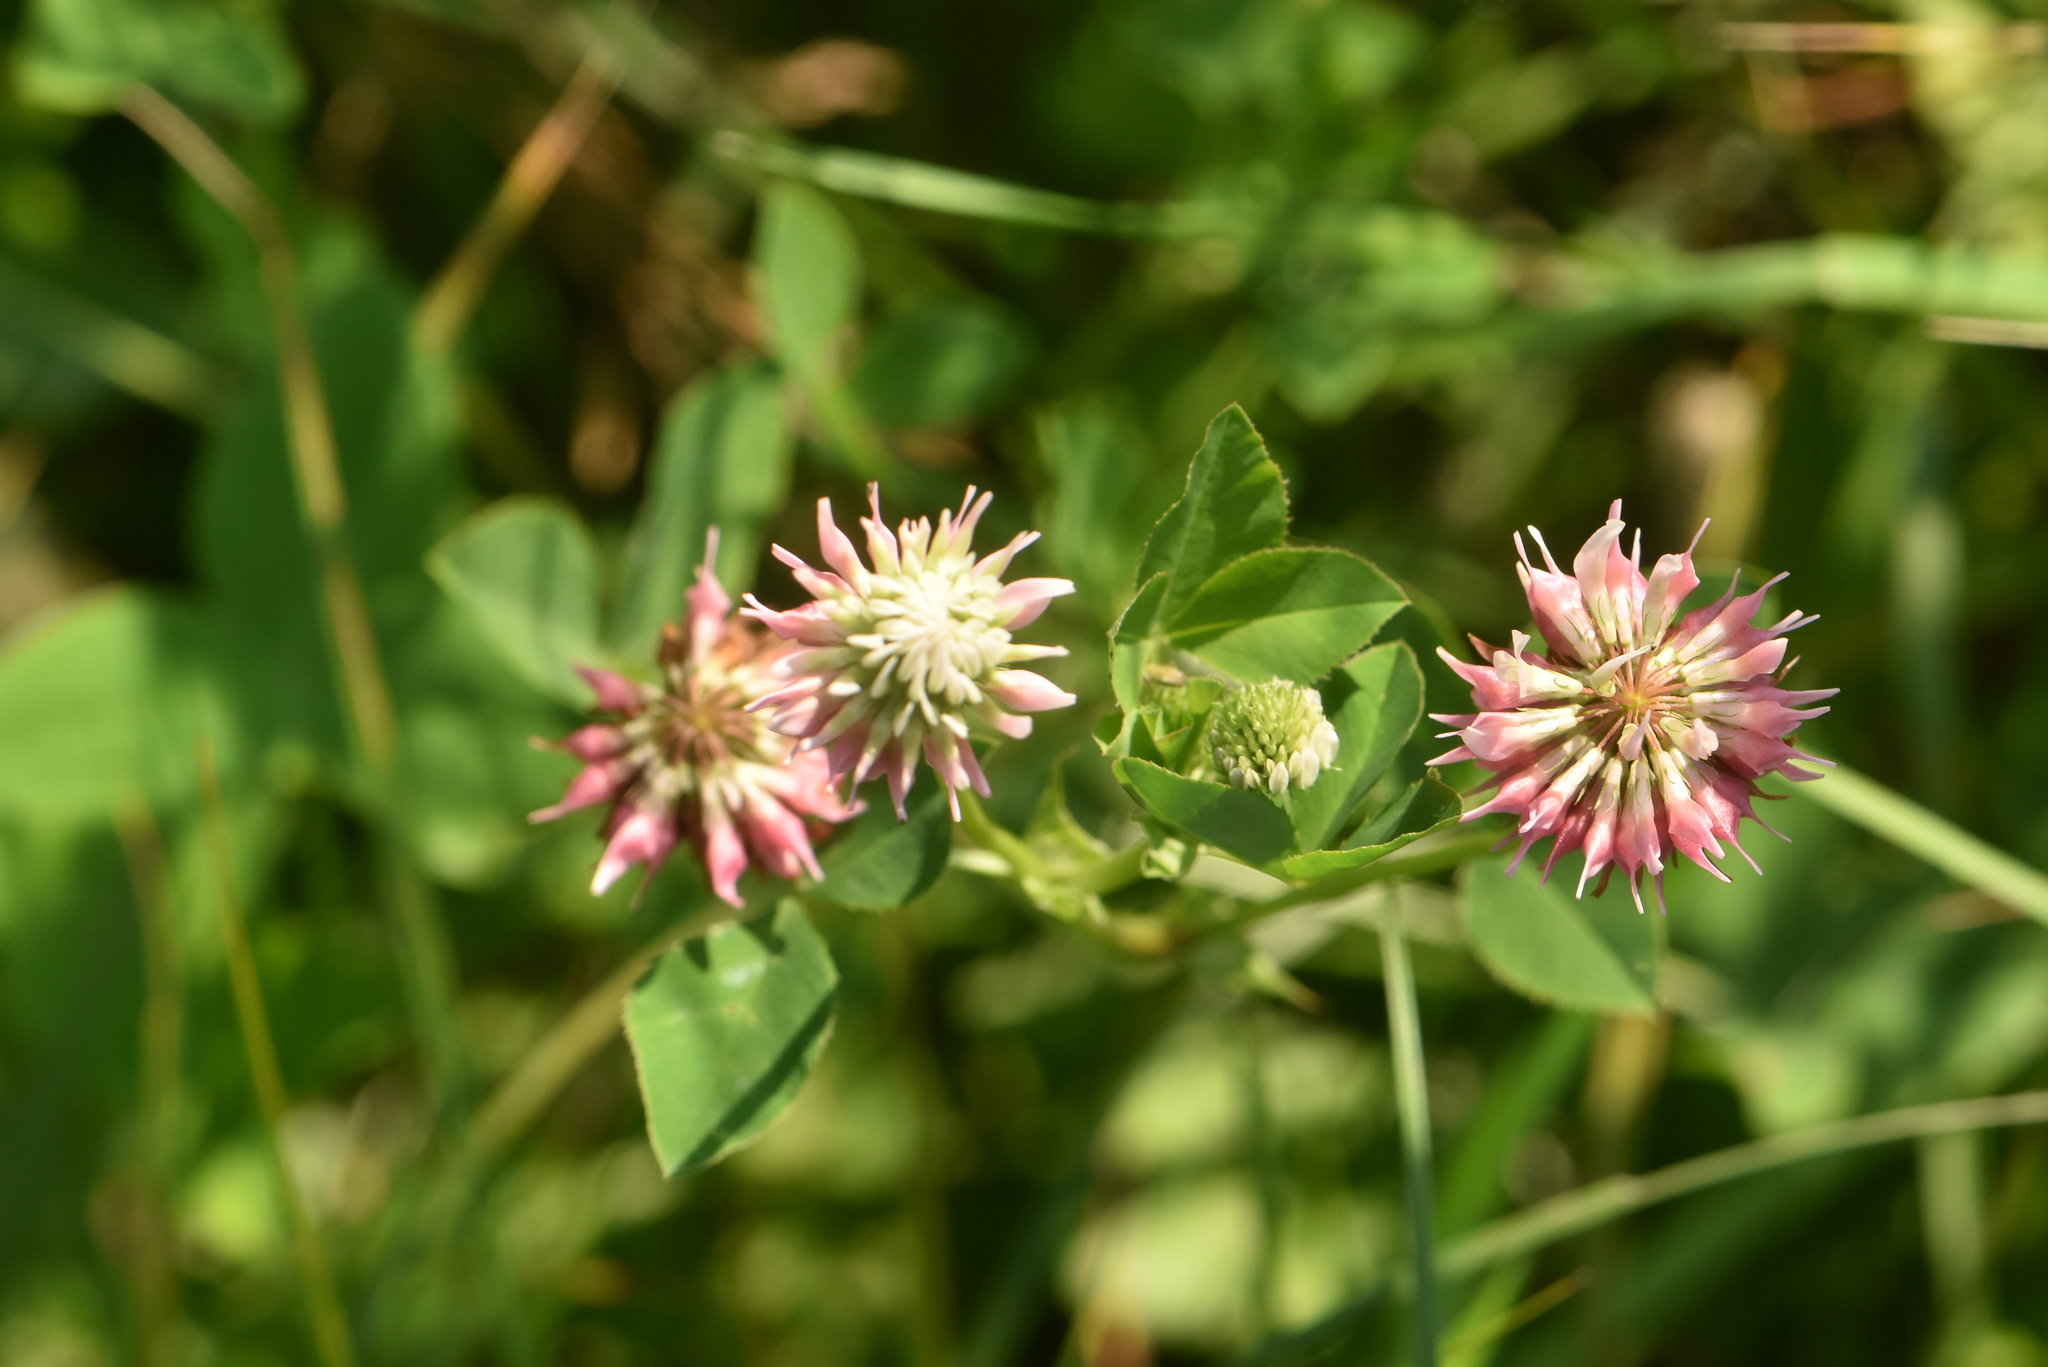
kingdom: Plantae
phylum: Tracheophyta
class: Magnoliopsida
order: Fabales
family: Fabaceae
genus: Trifolium
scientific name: Trifolium hybridum
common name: Alsike clover
